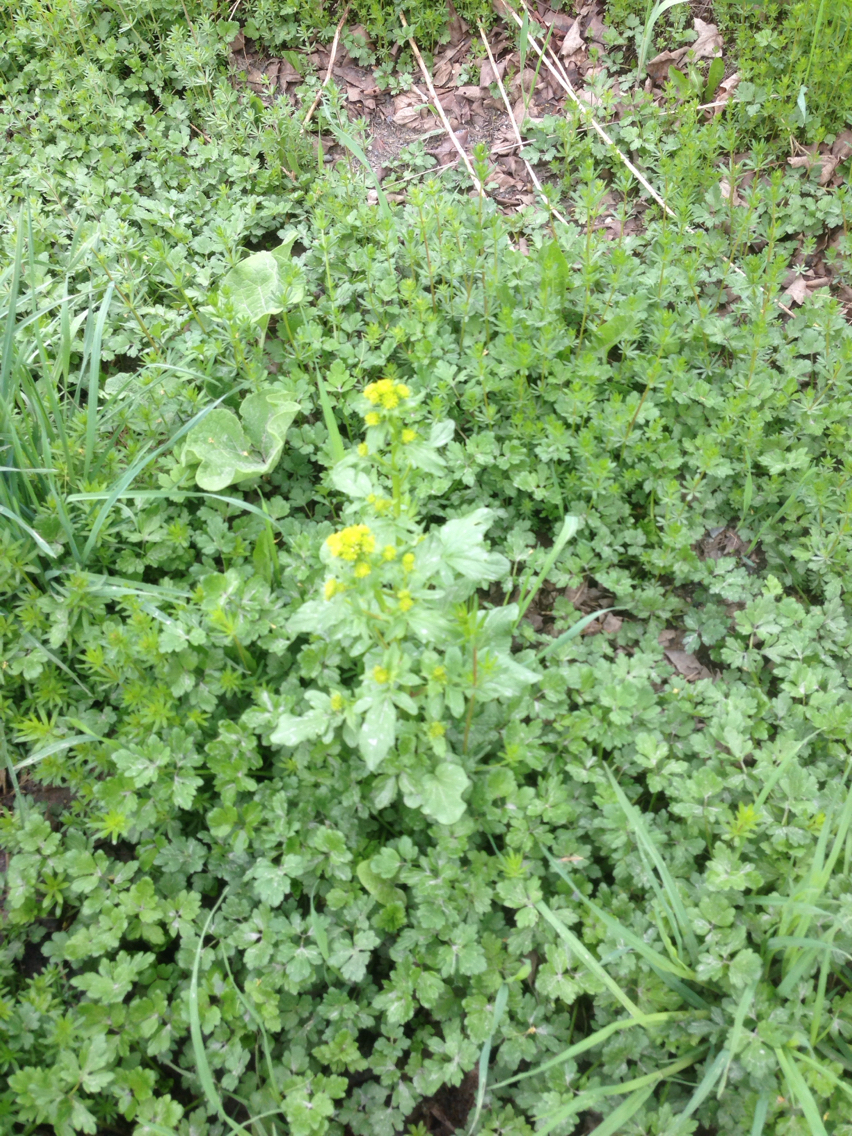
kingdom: Plantae
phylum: Tracheophyta
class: Magnoliopsida
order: Brassicales
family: Brassicaceae
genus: Barbarea
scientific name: Barbarea vulgaris
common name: Cressy-greens
